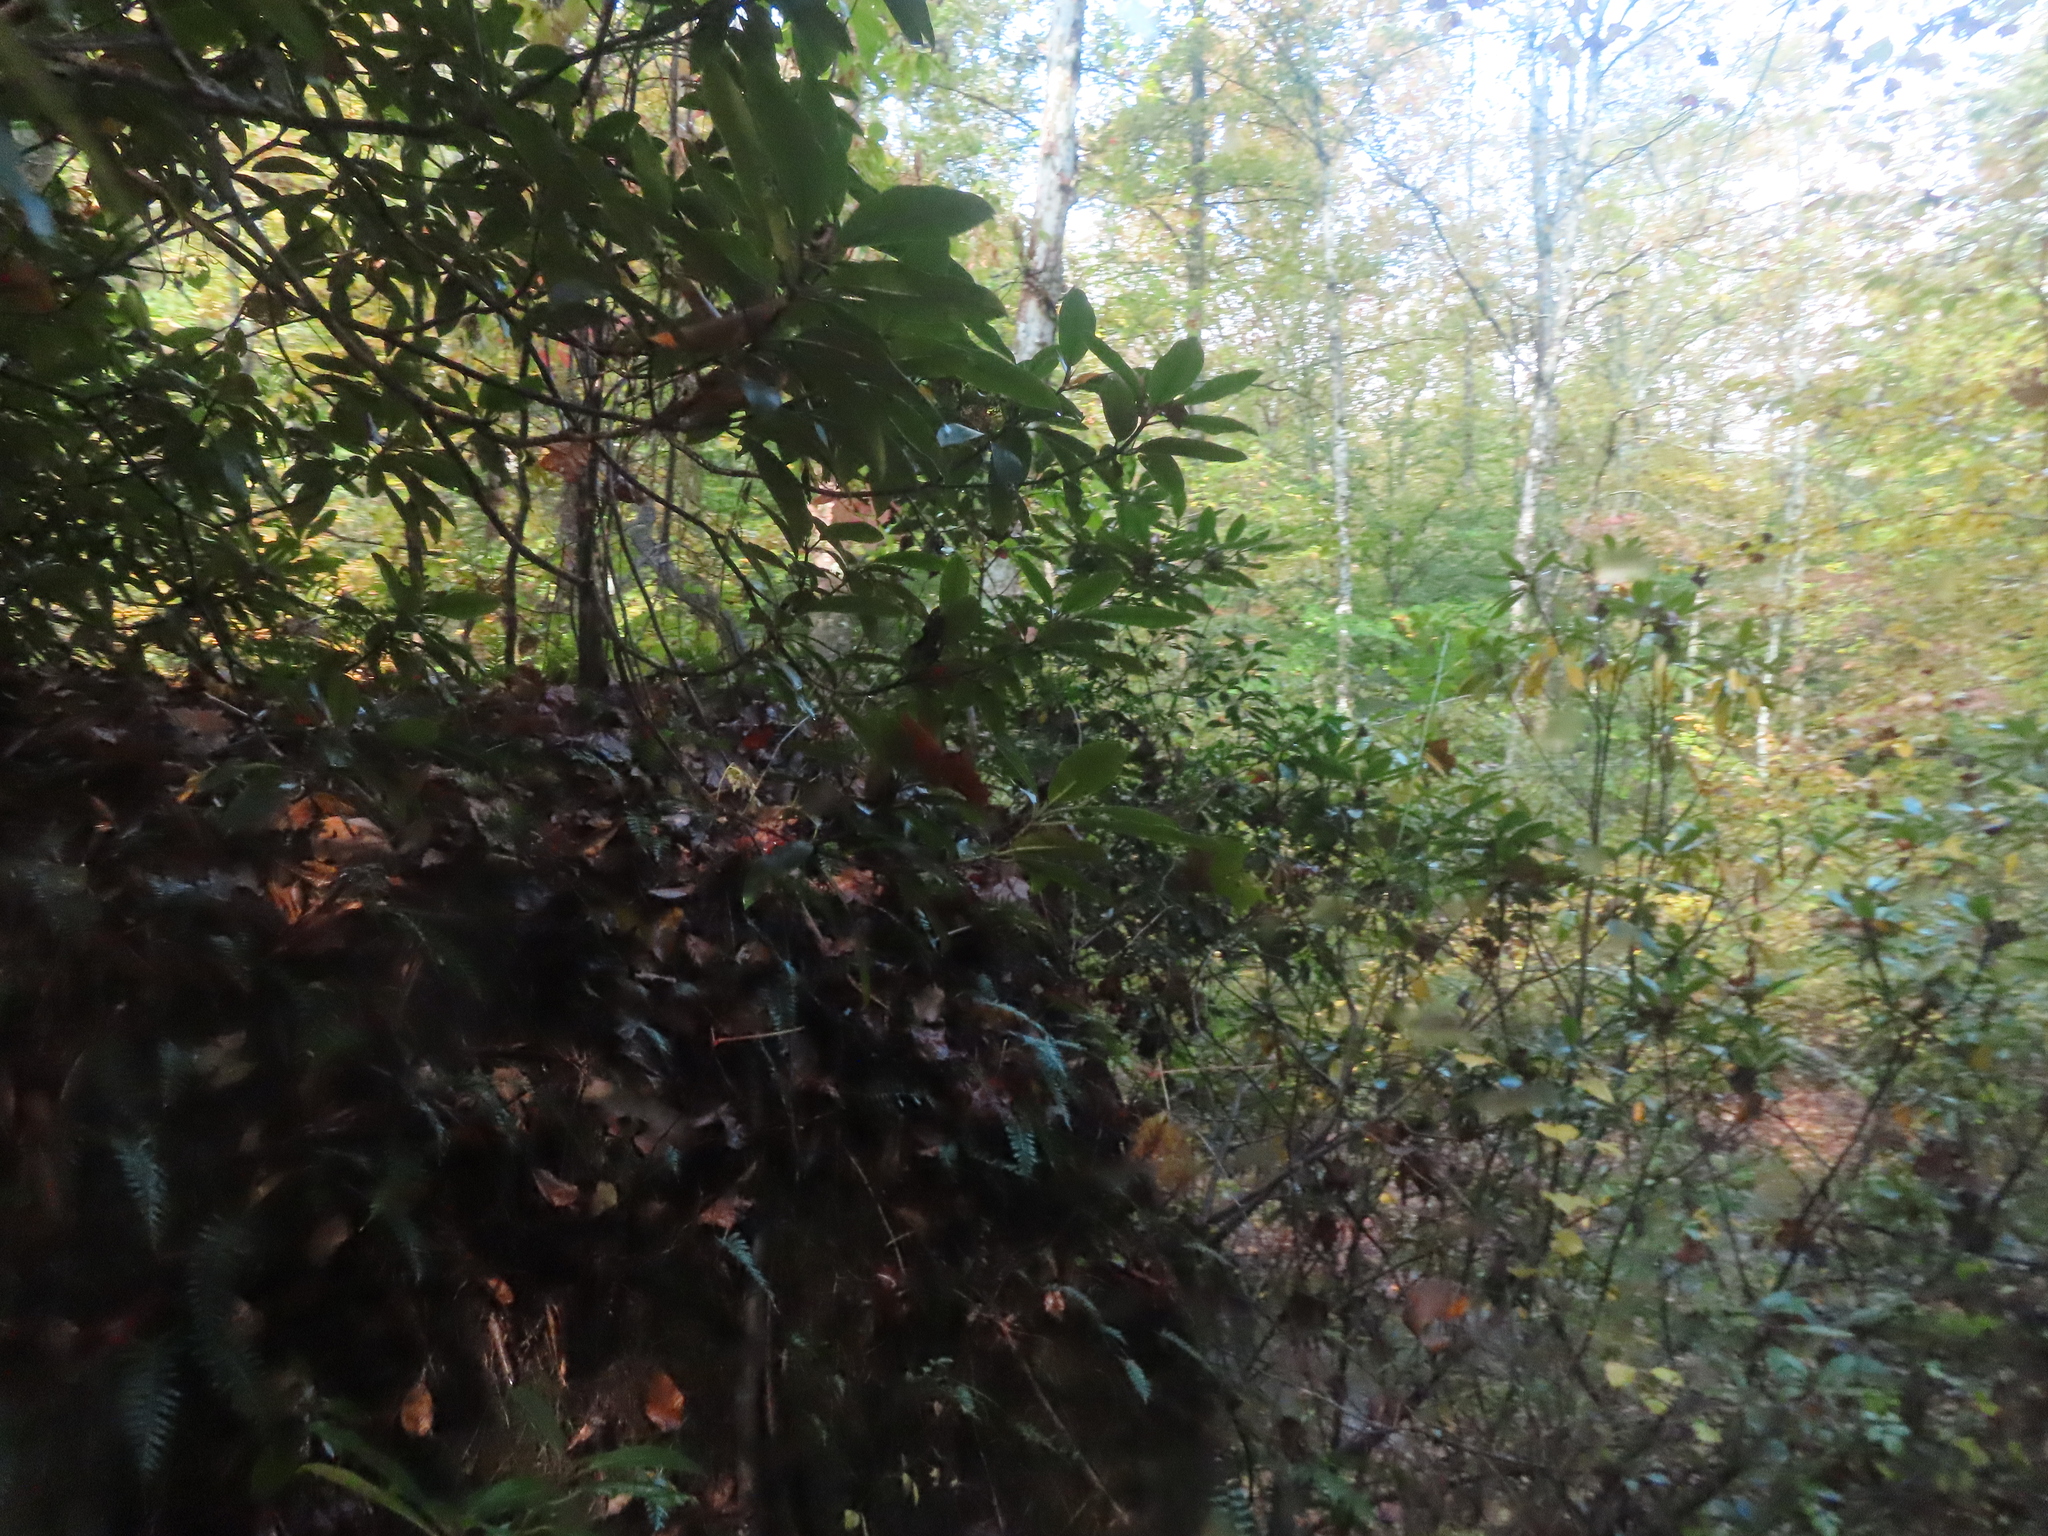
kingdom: Plantae
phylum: Tracheophyta
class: Magnoliopsida
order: Ericales
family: Ericaceae
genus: Rhododendron
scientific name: Rhododendron maximum
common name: Great rhododendron
